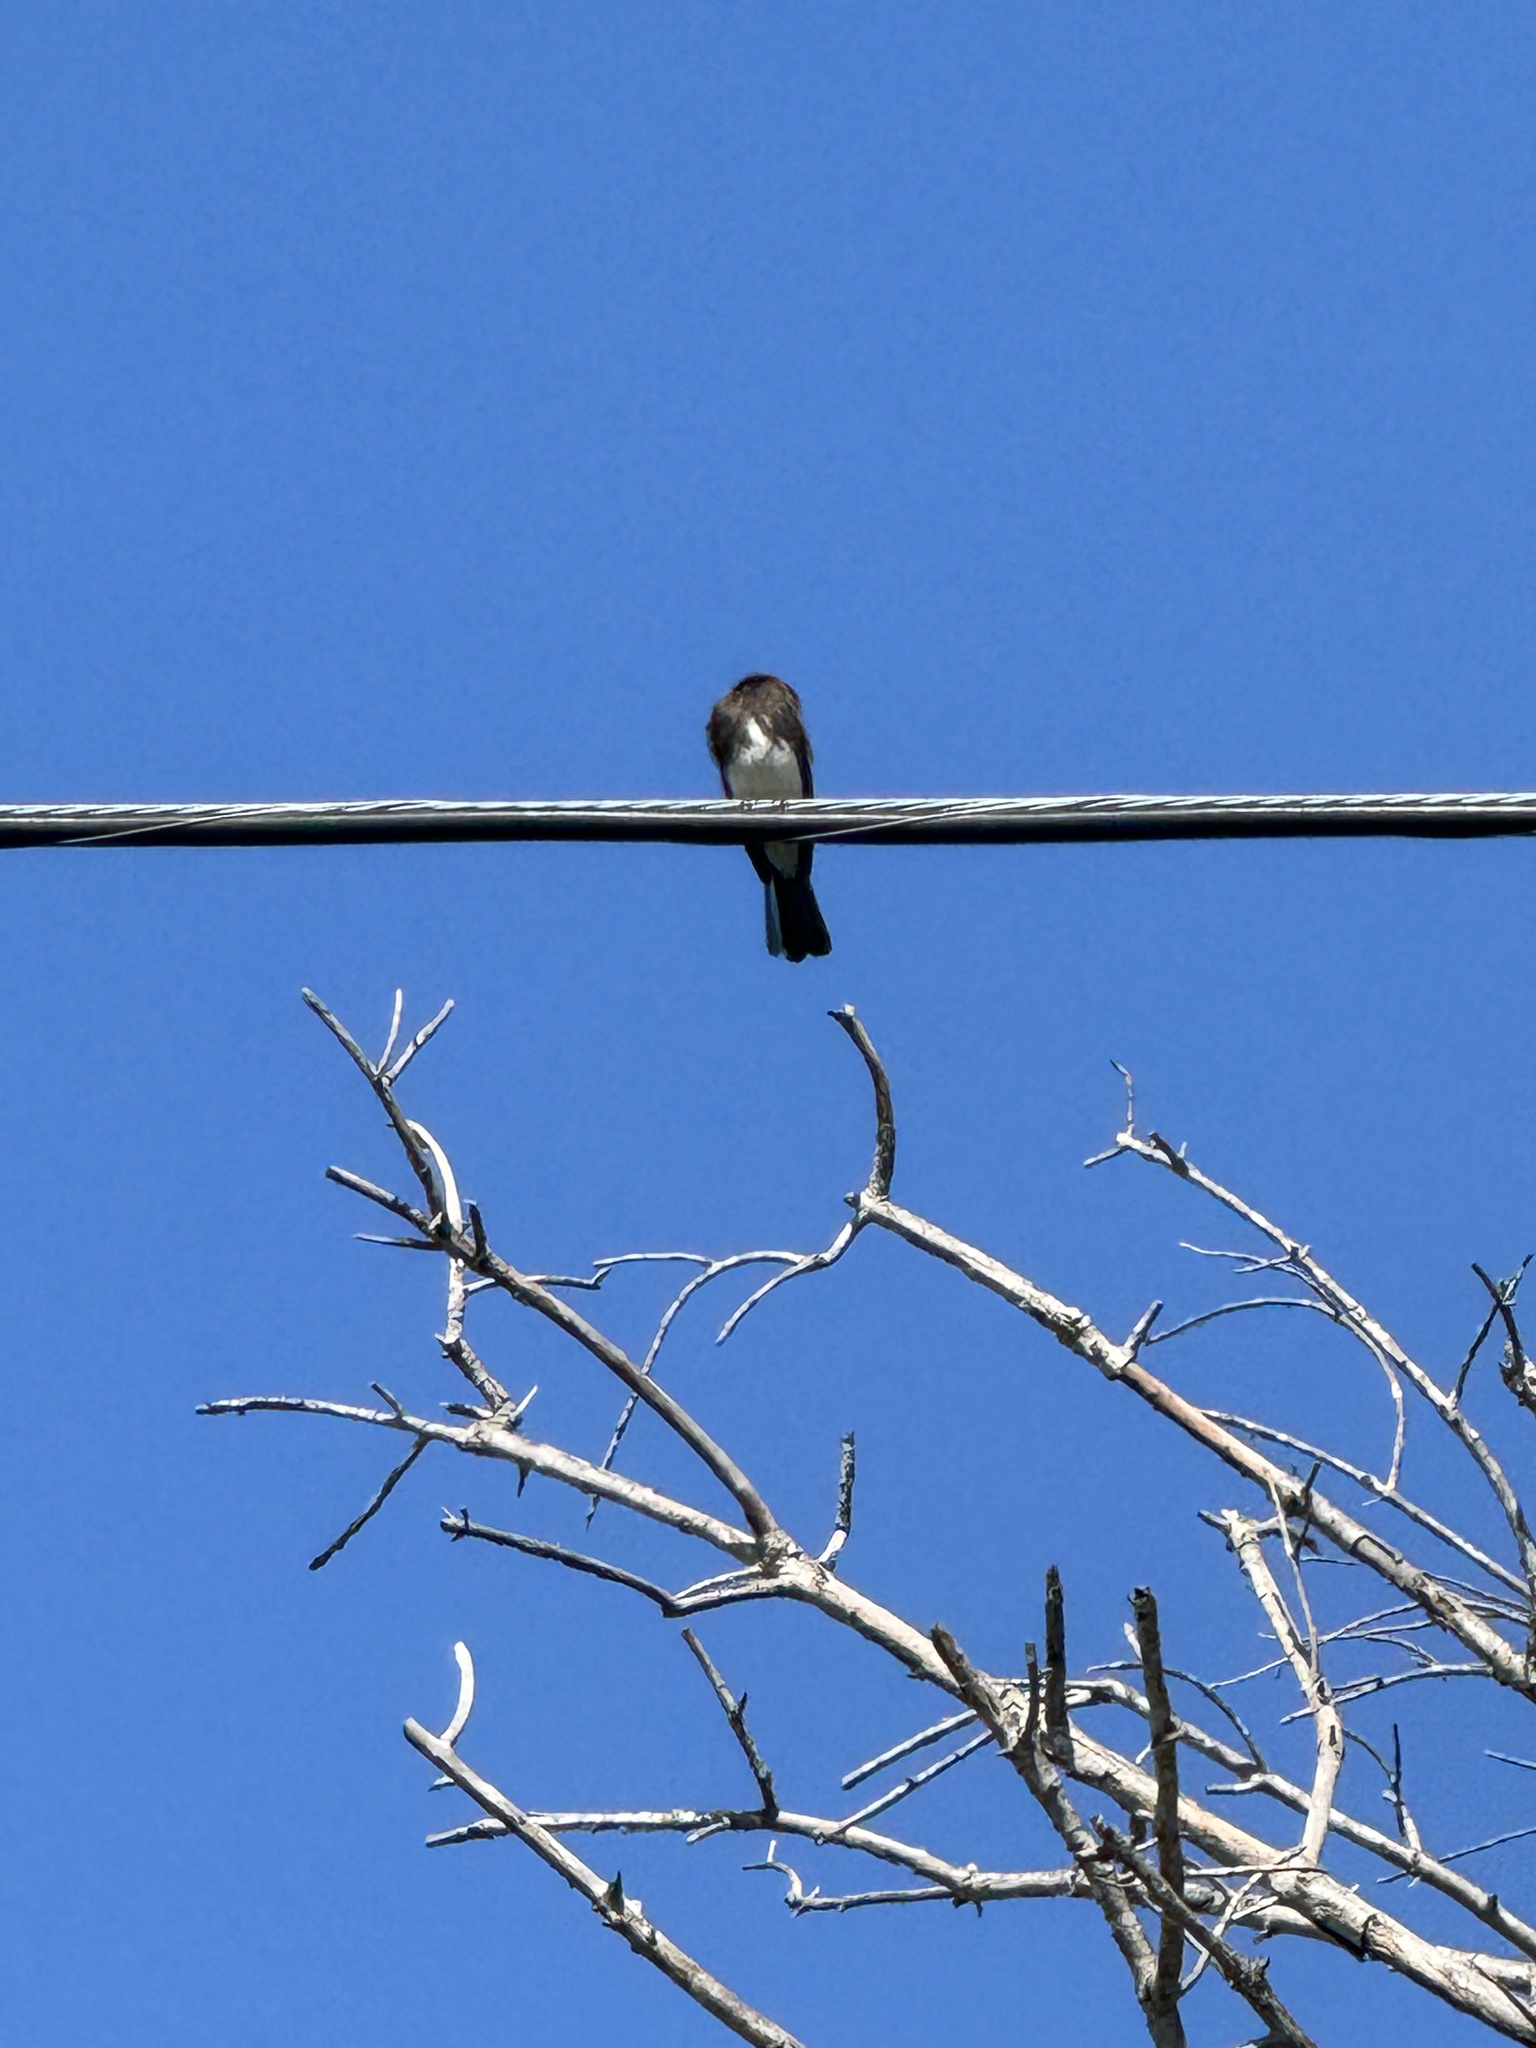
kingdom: Animalia
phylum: Chordata
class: Aves
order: Passeriformes
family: Tyrannidae
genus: Sayornis
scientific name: Sayornis nigricans
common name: Black phoebe
